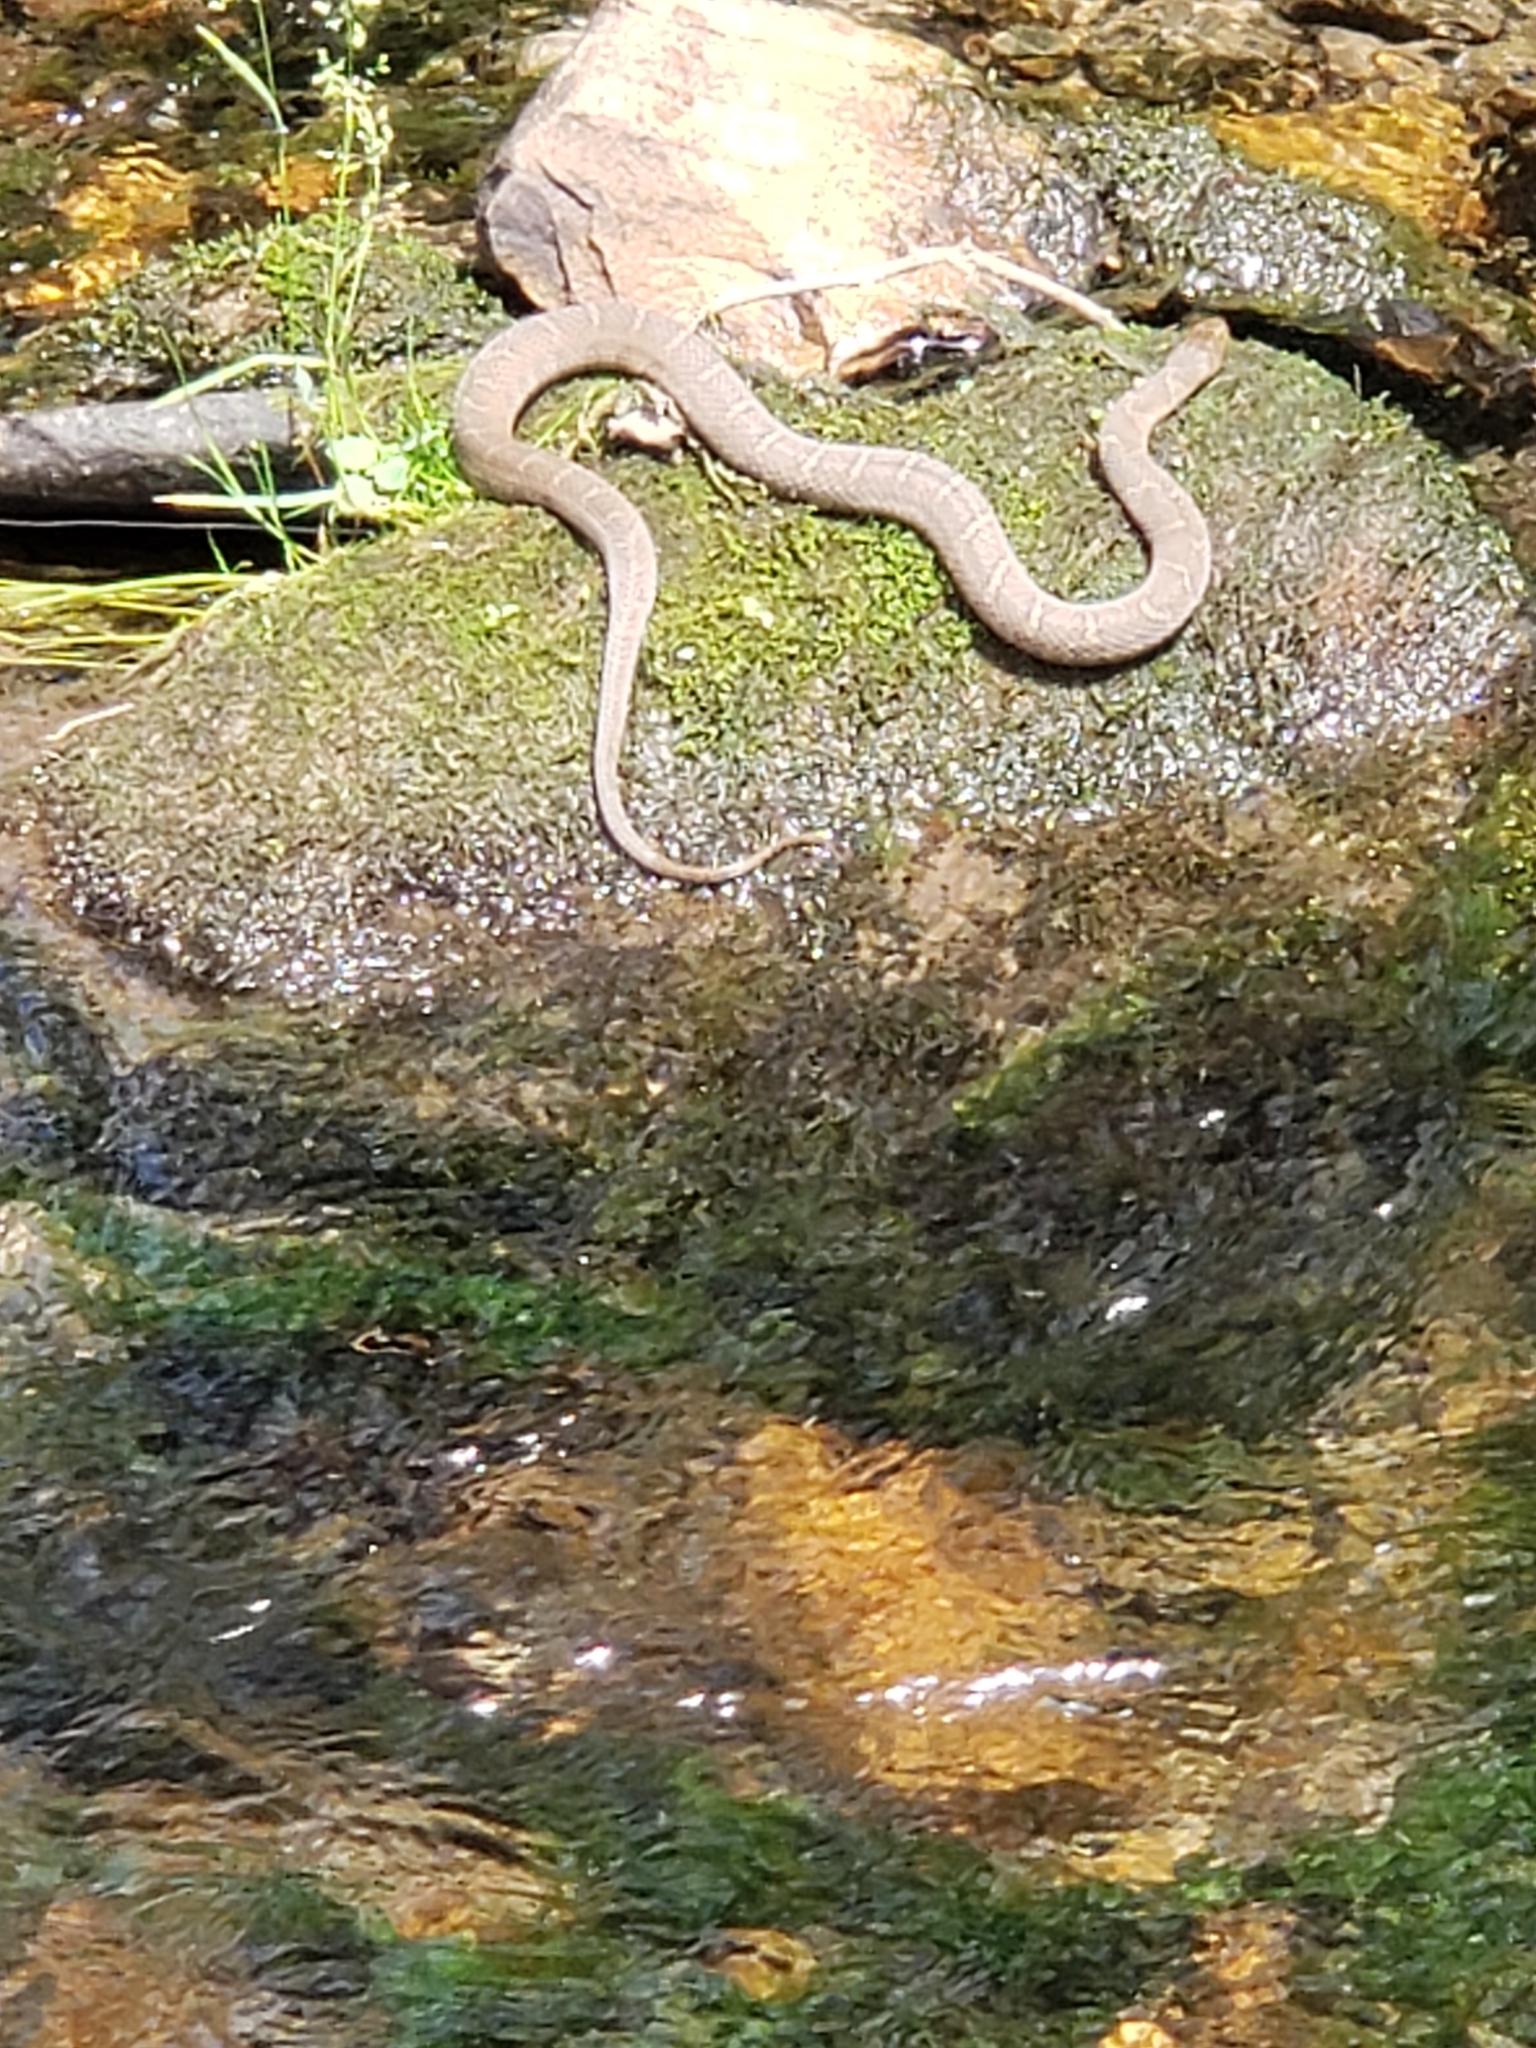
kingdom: Animalia
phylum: Chordata
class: Squamata
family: Colubridae
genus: Nerodia
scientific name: Nerodia sipedon
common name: Northern water snake
